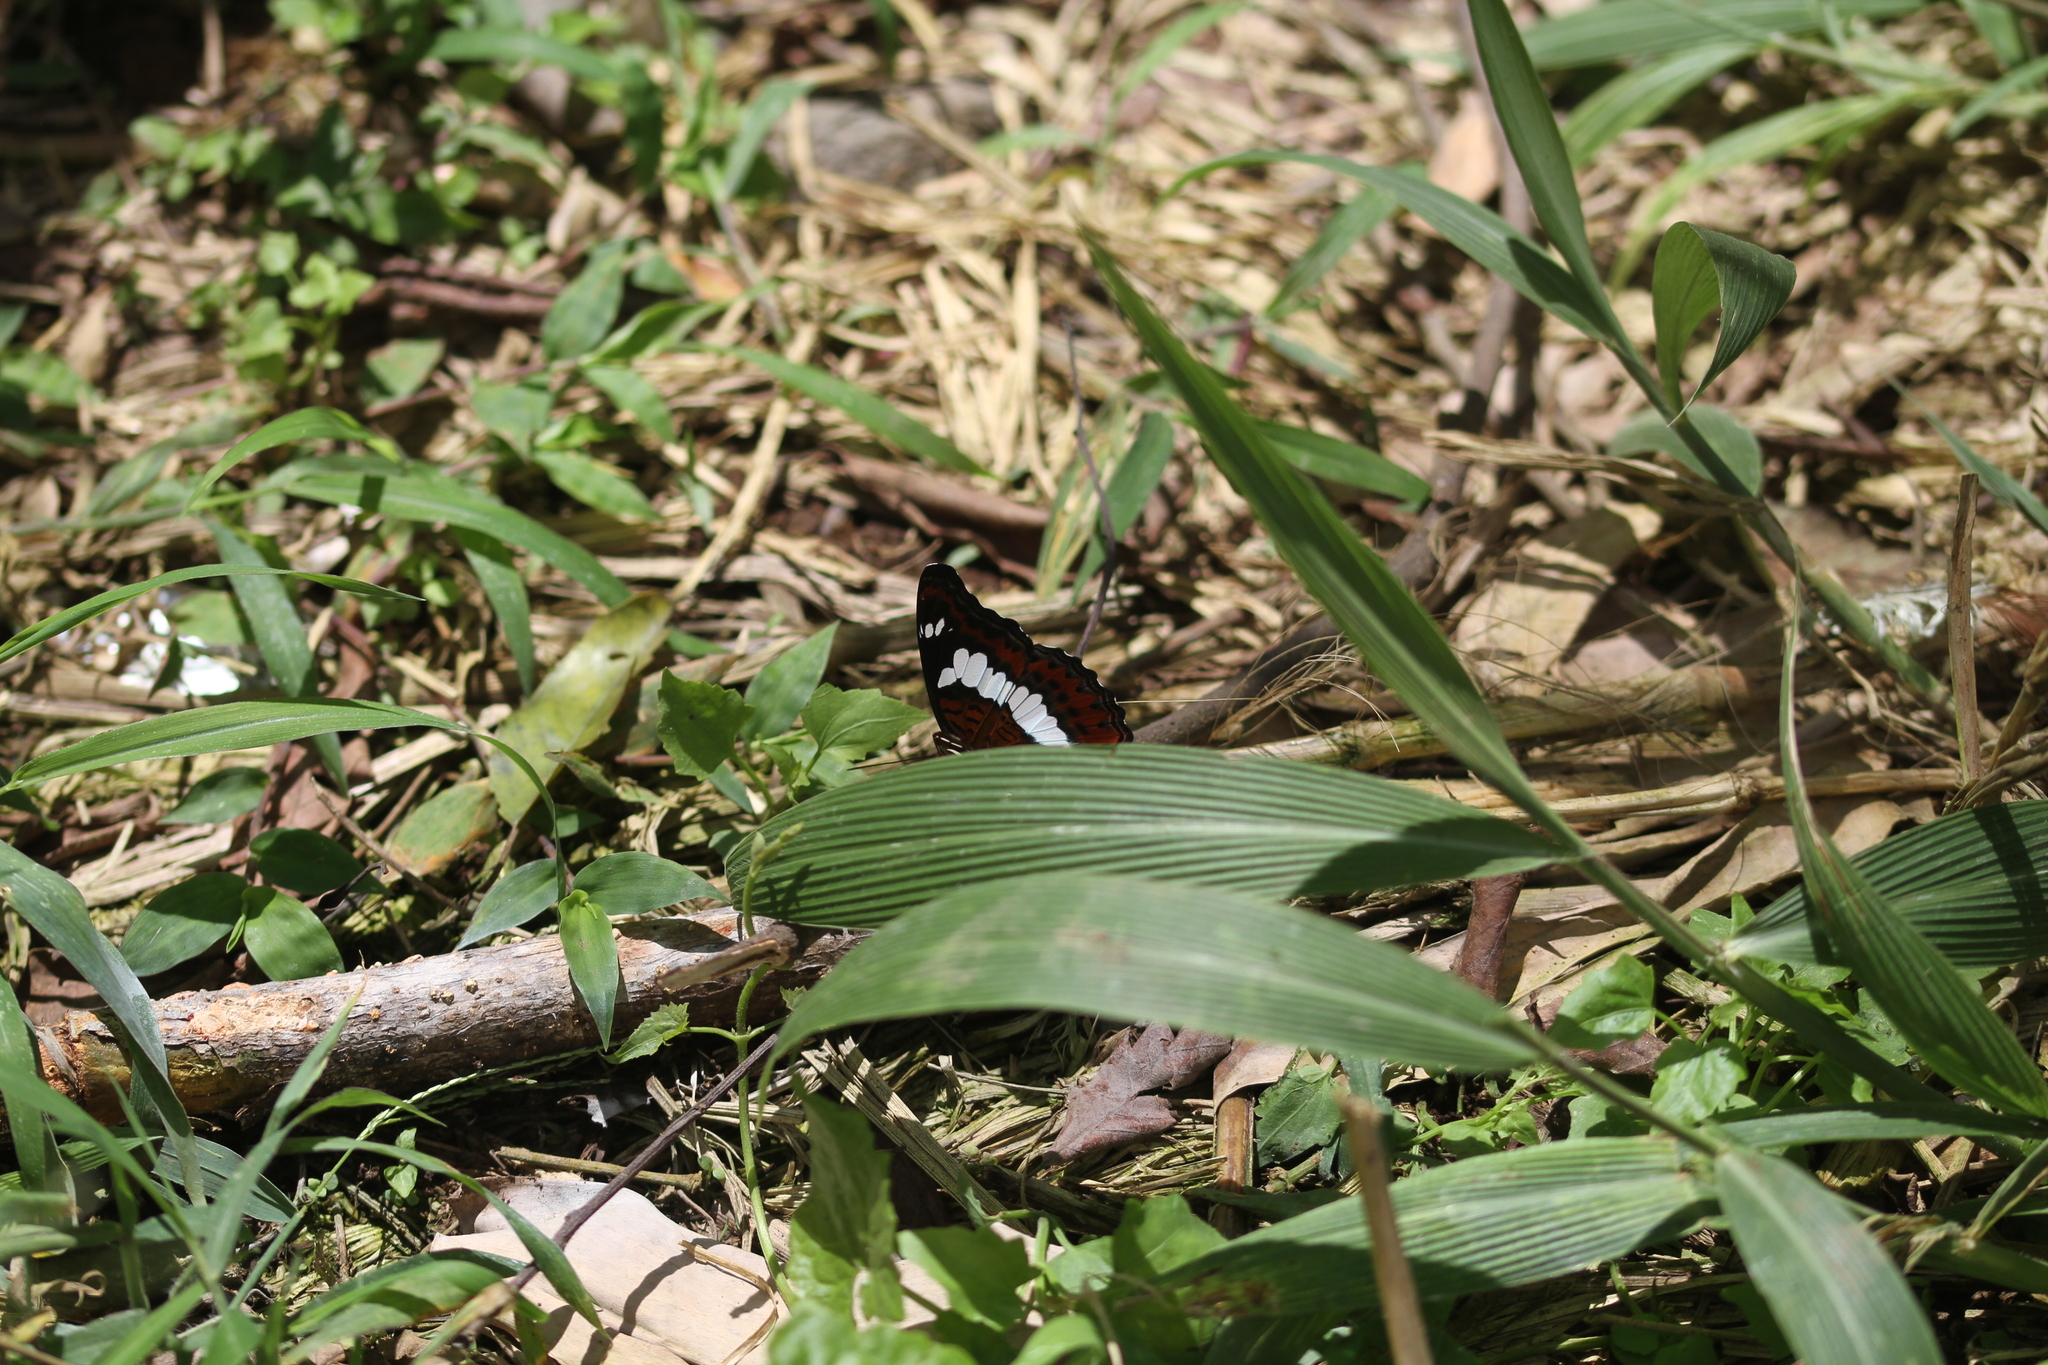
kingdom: Animalia
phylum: Arthropoda
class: Insecta
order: Lepidoptera
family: Nymphalidae
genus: Limenitis
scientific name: Limenitis Moduza procris
